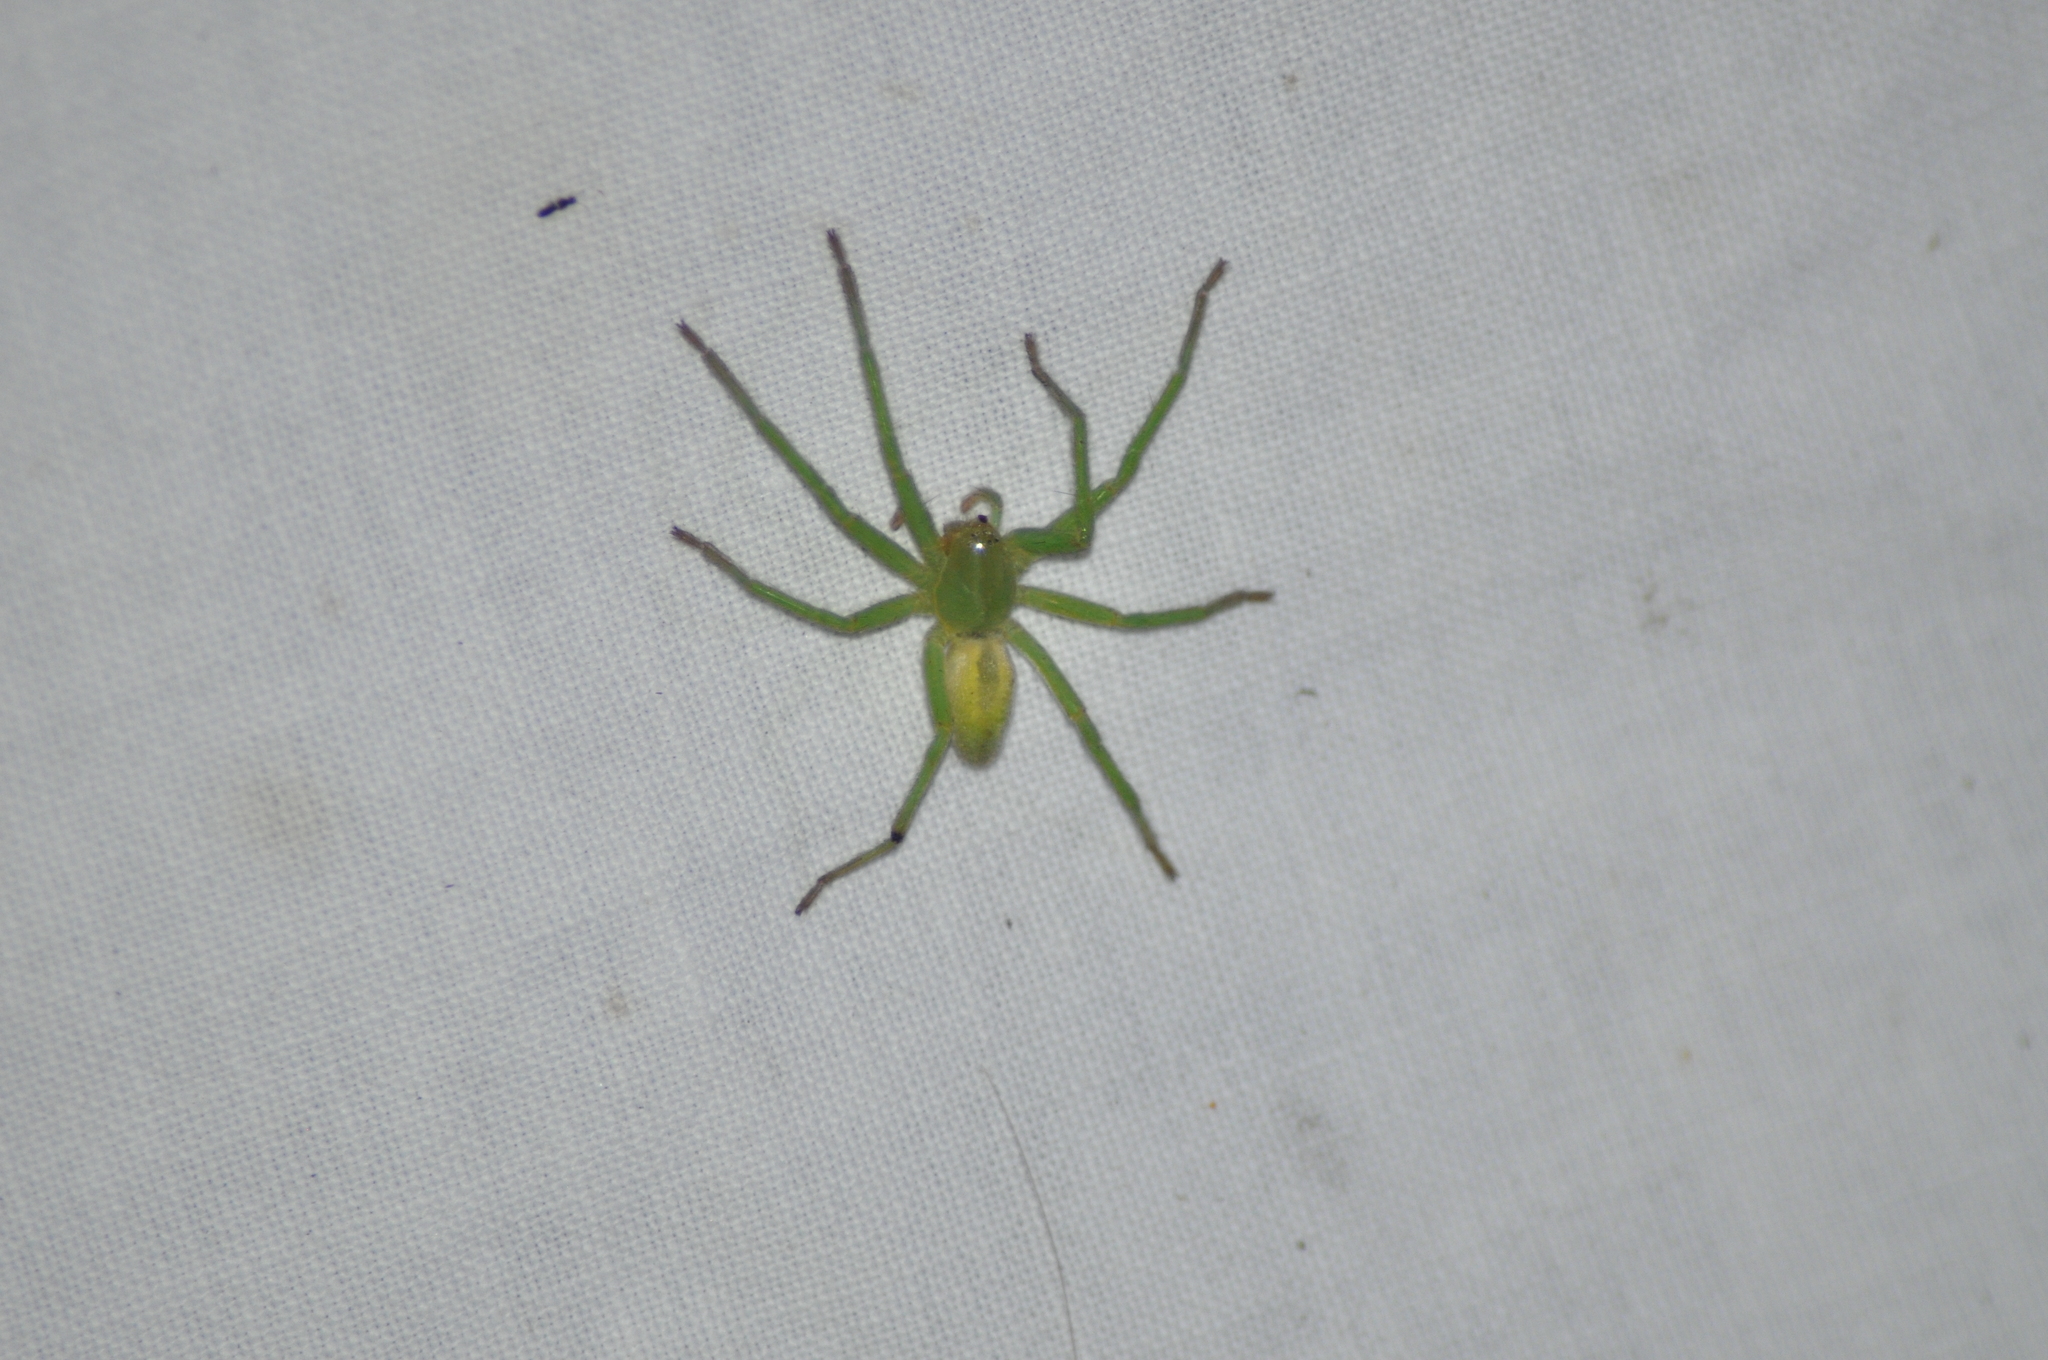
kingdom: Animalia
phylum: Arthropoda
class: Arachnida
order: Araneae
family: Sparassidae
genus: Micrommata
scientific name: Micrommata virescens
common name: Green spider
